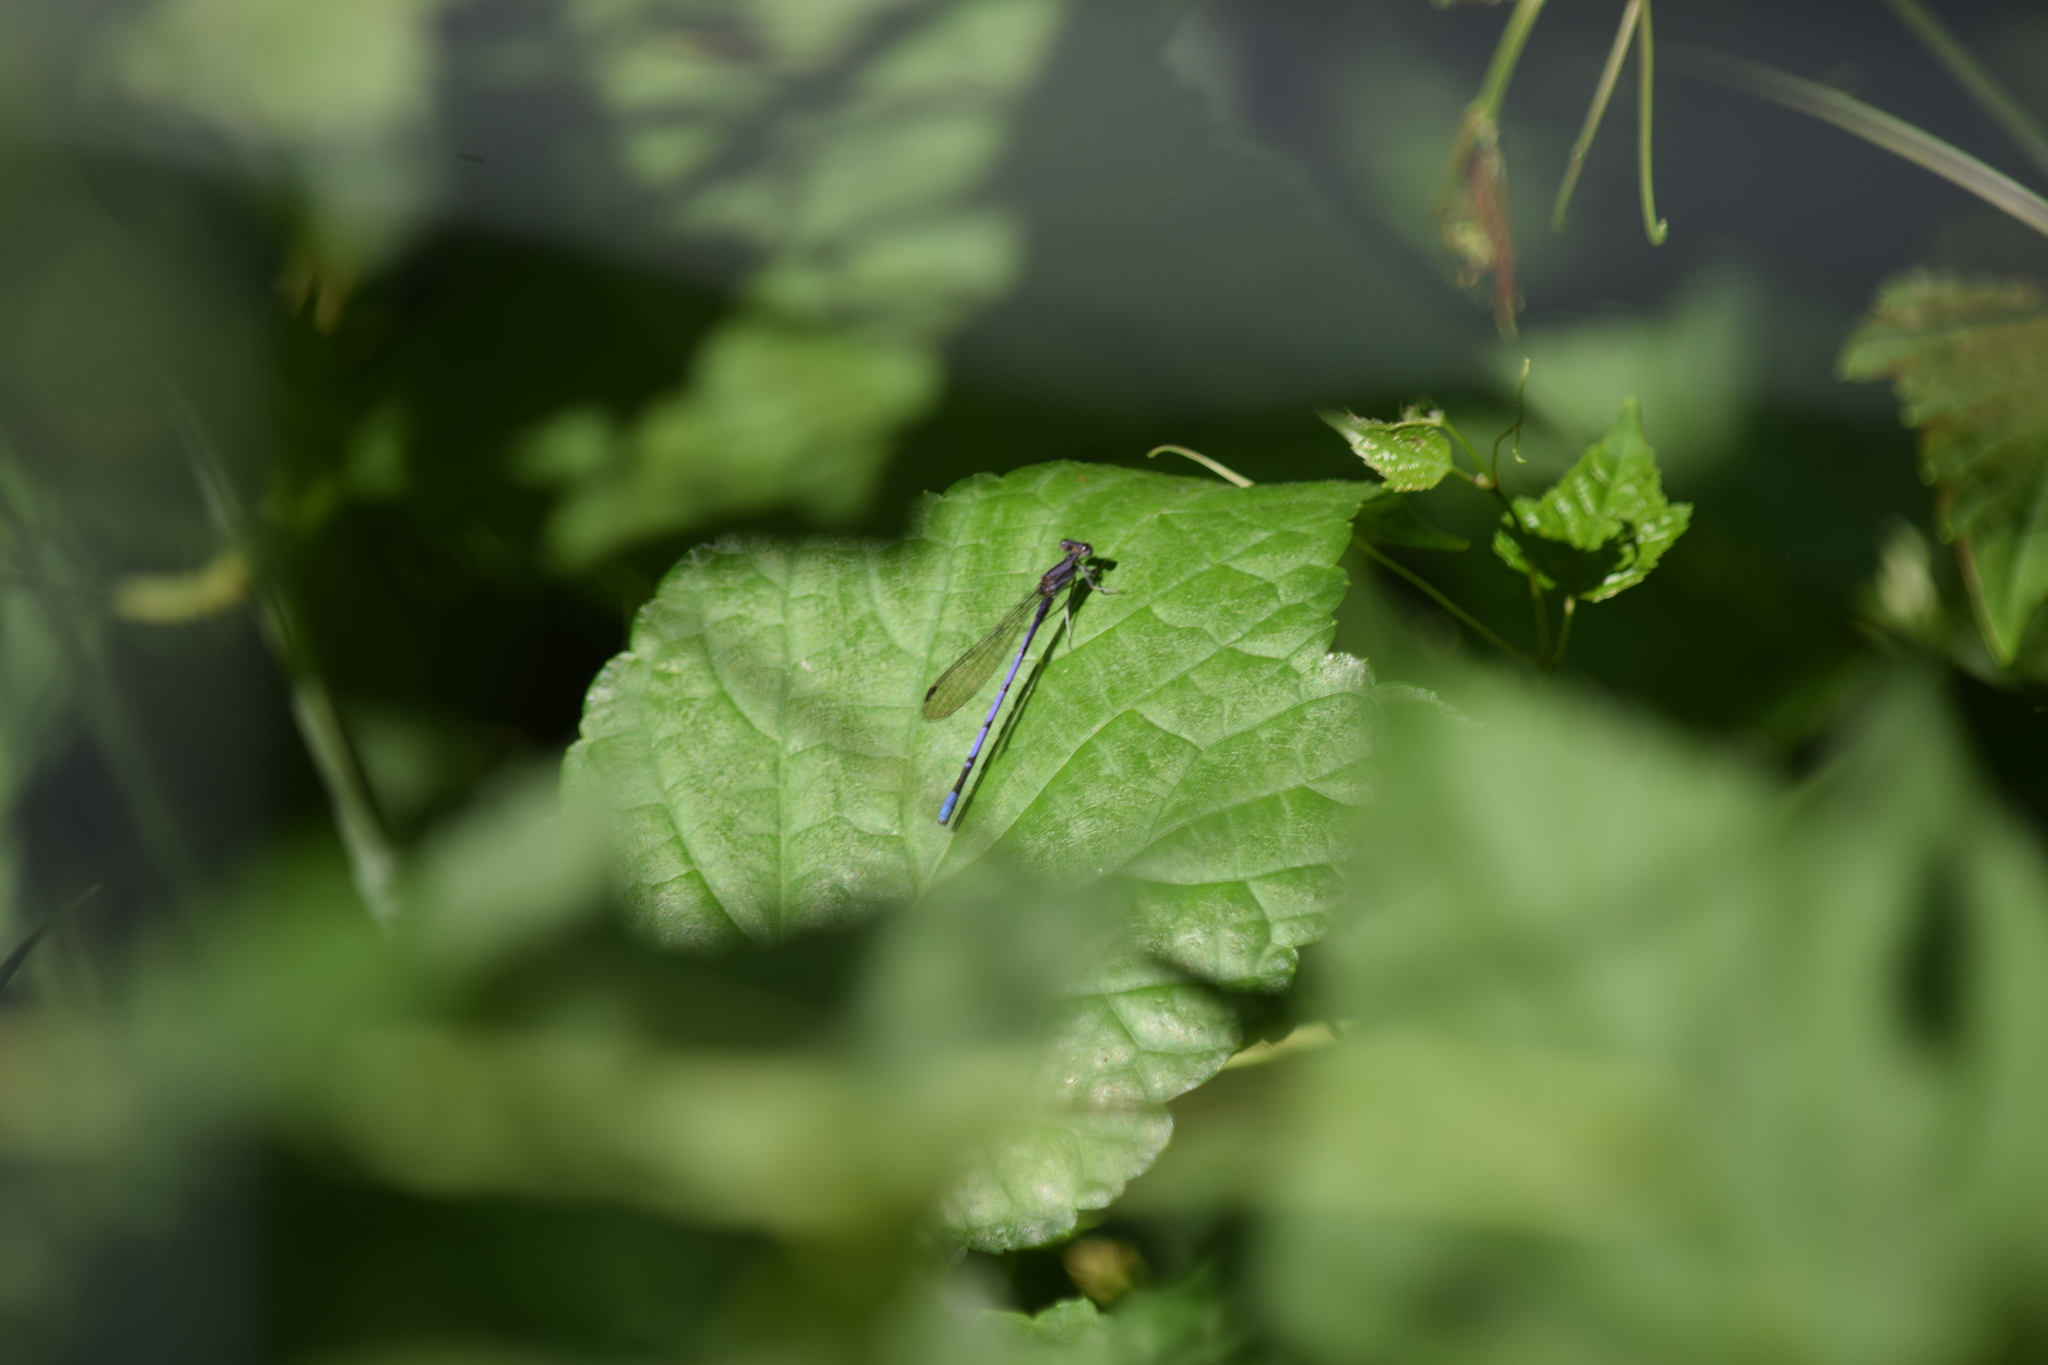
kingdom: Animalia
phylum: Arthropoda
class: Insecta
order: Odonata
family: Coenagrionidae
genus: Argia
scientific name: Argia fumipennis
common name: Variable dancer
